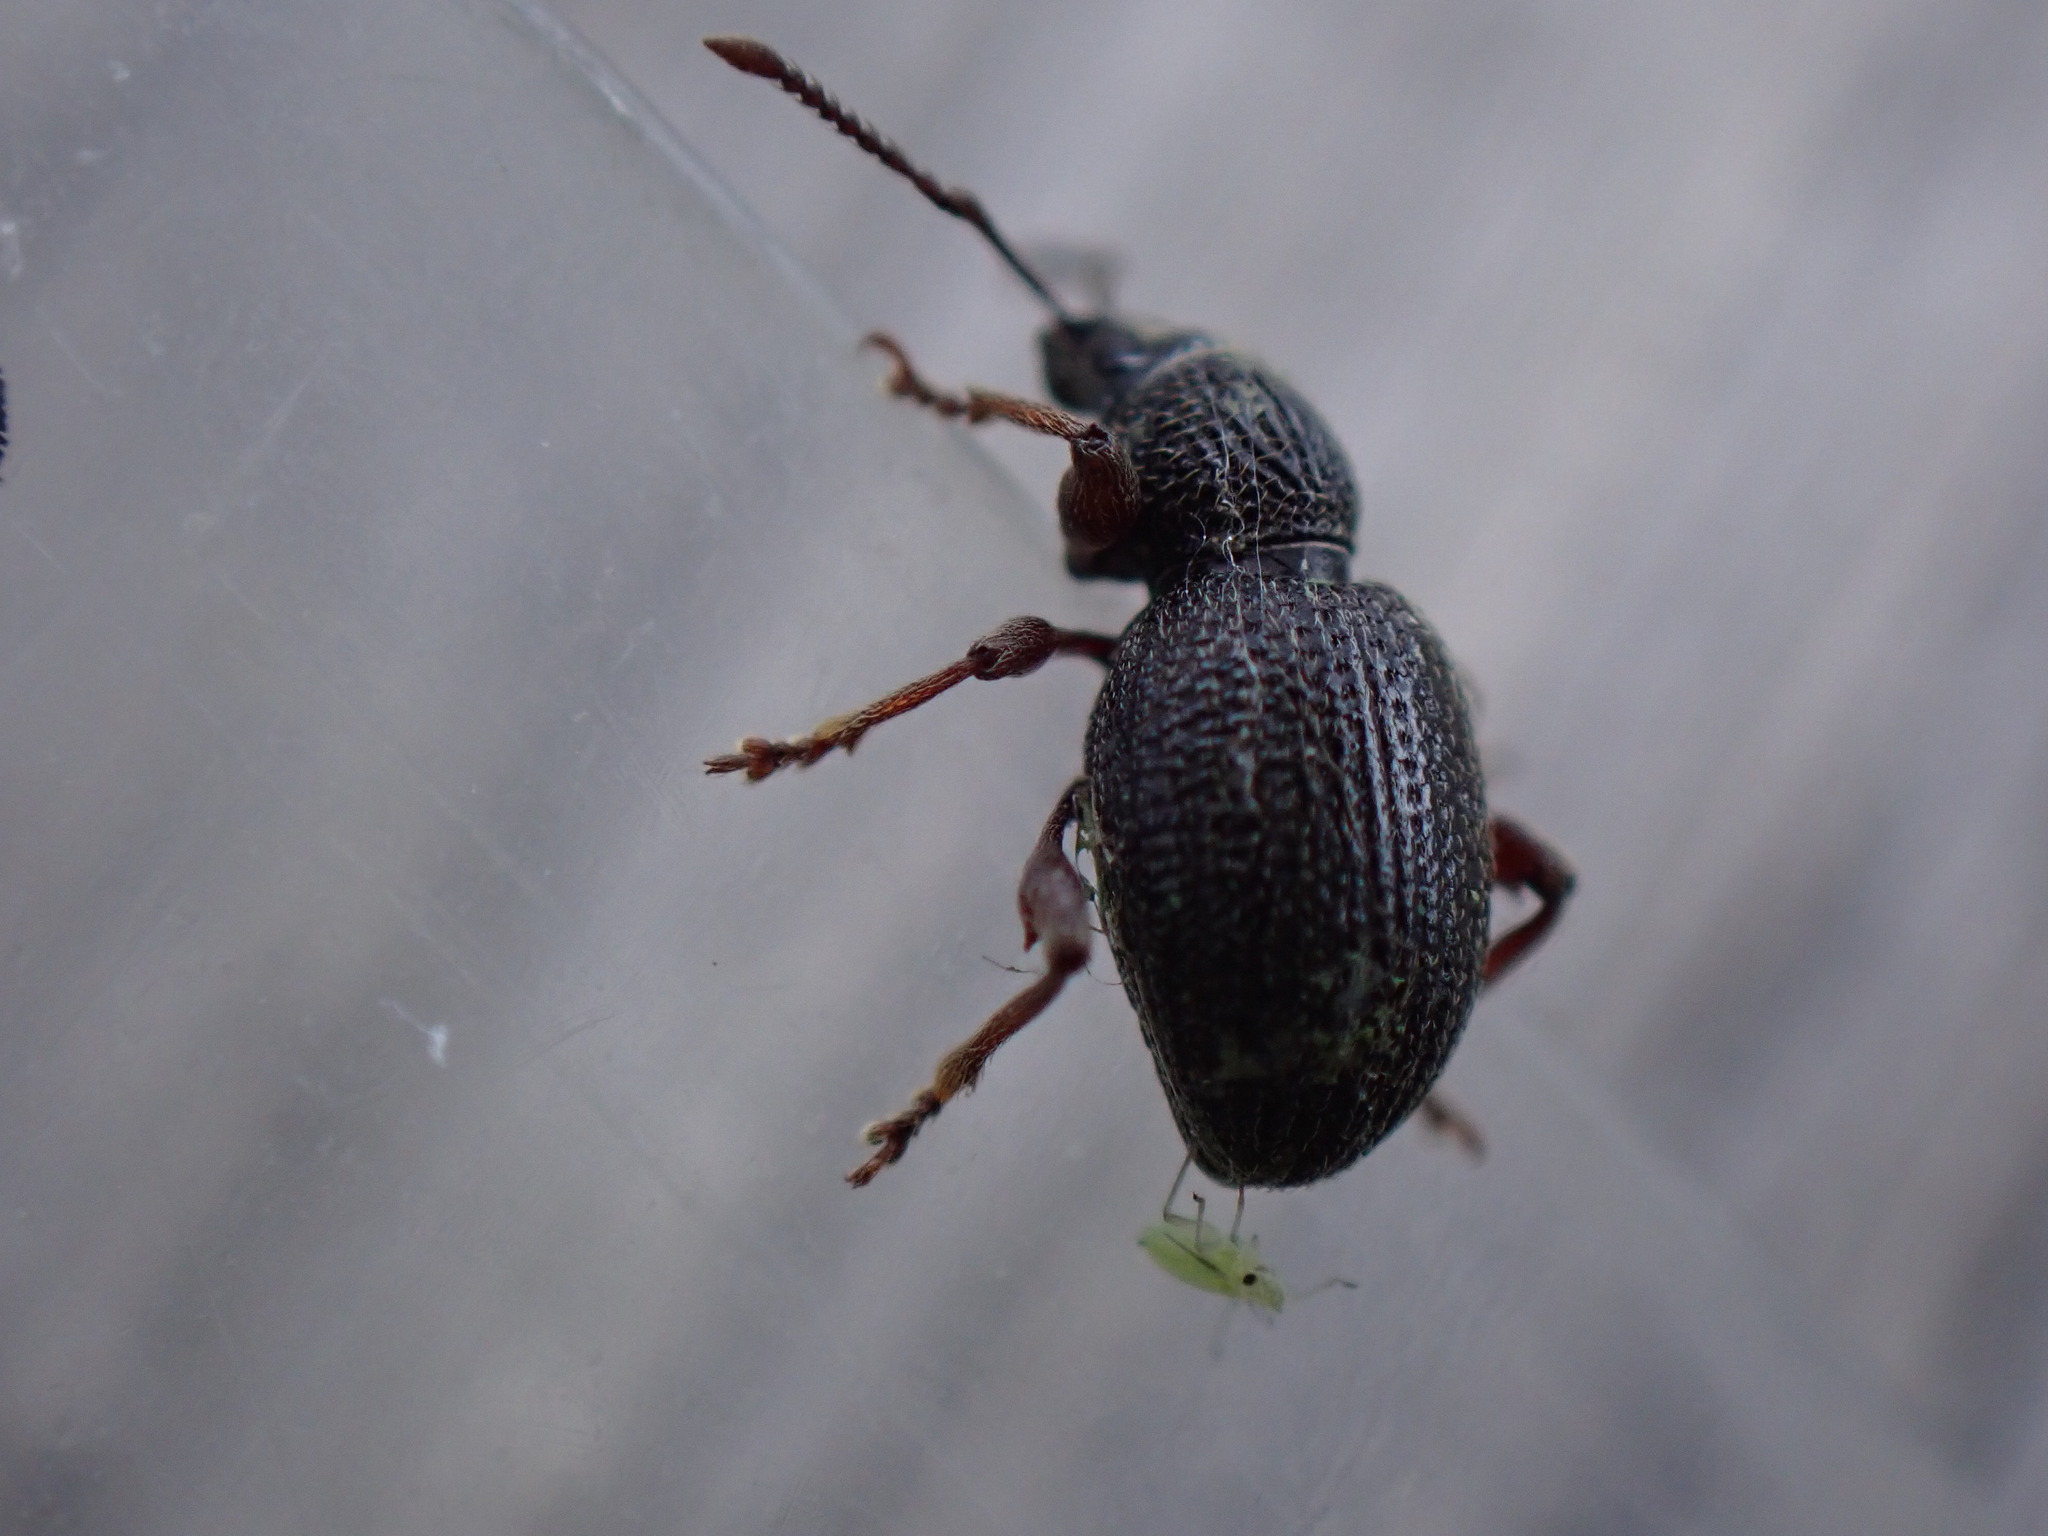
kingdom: Animalia
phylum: Arthropoda
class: Insecta
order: Coleoptera
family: Curculionidae
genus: Otiorhynchus
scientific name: Otiorhynchus ovatus
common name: Strawberry root weevil
